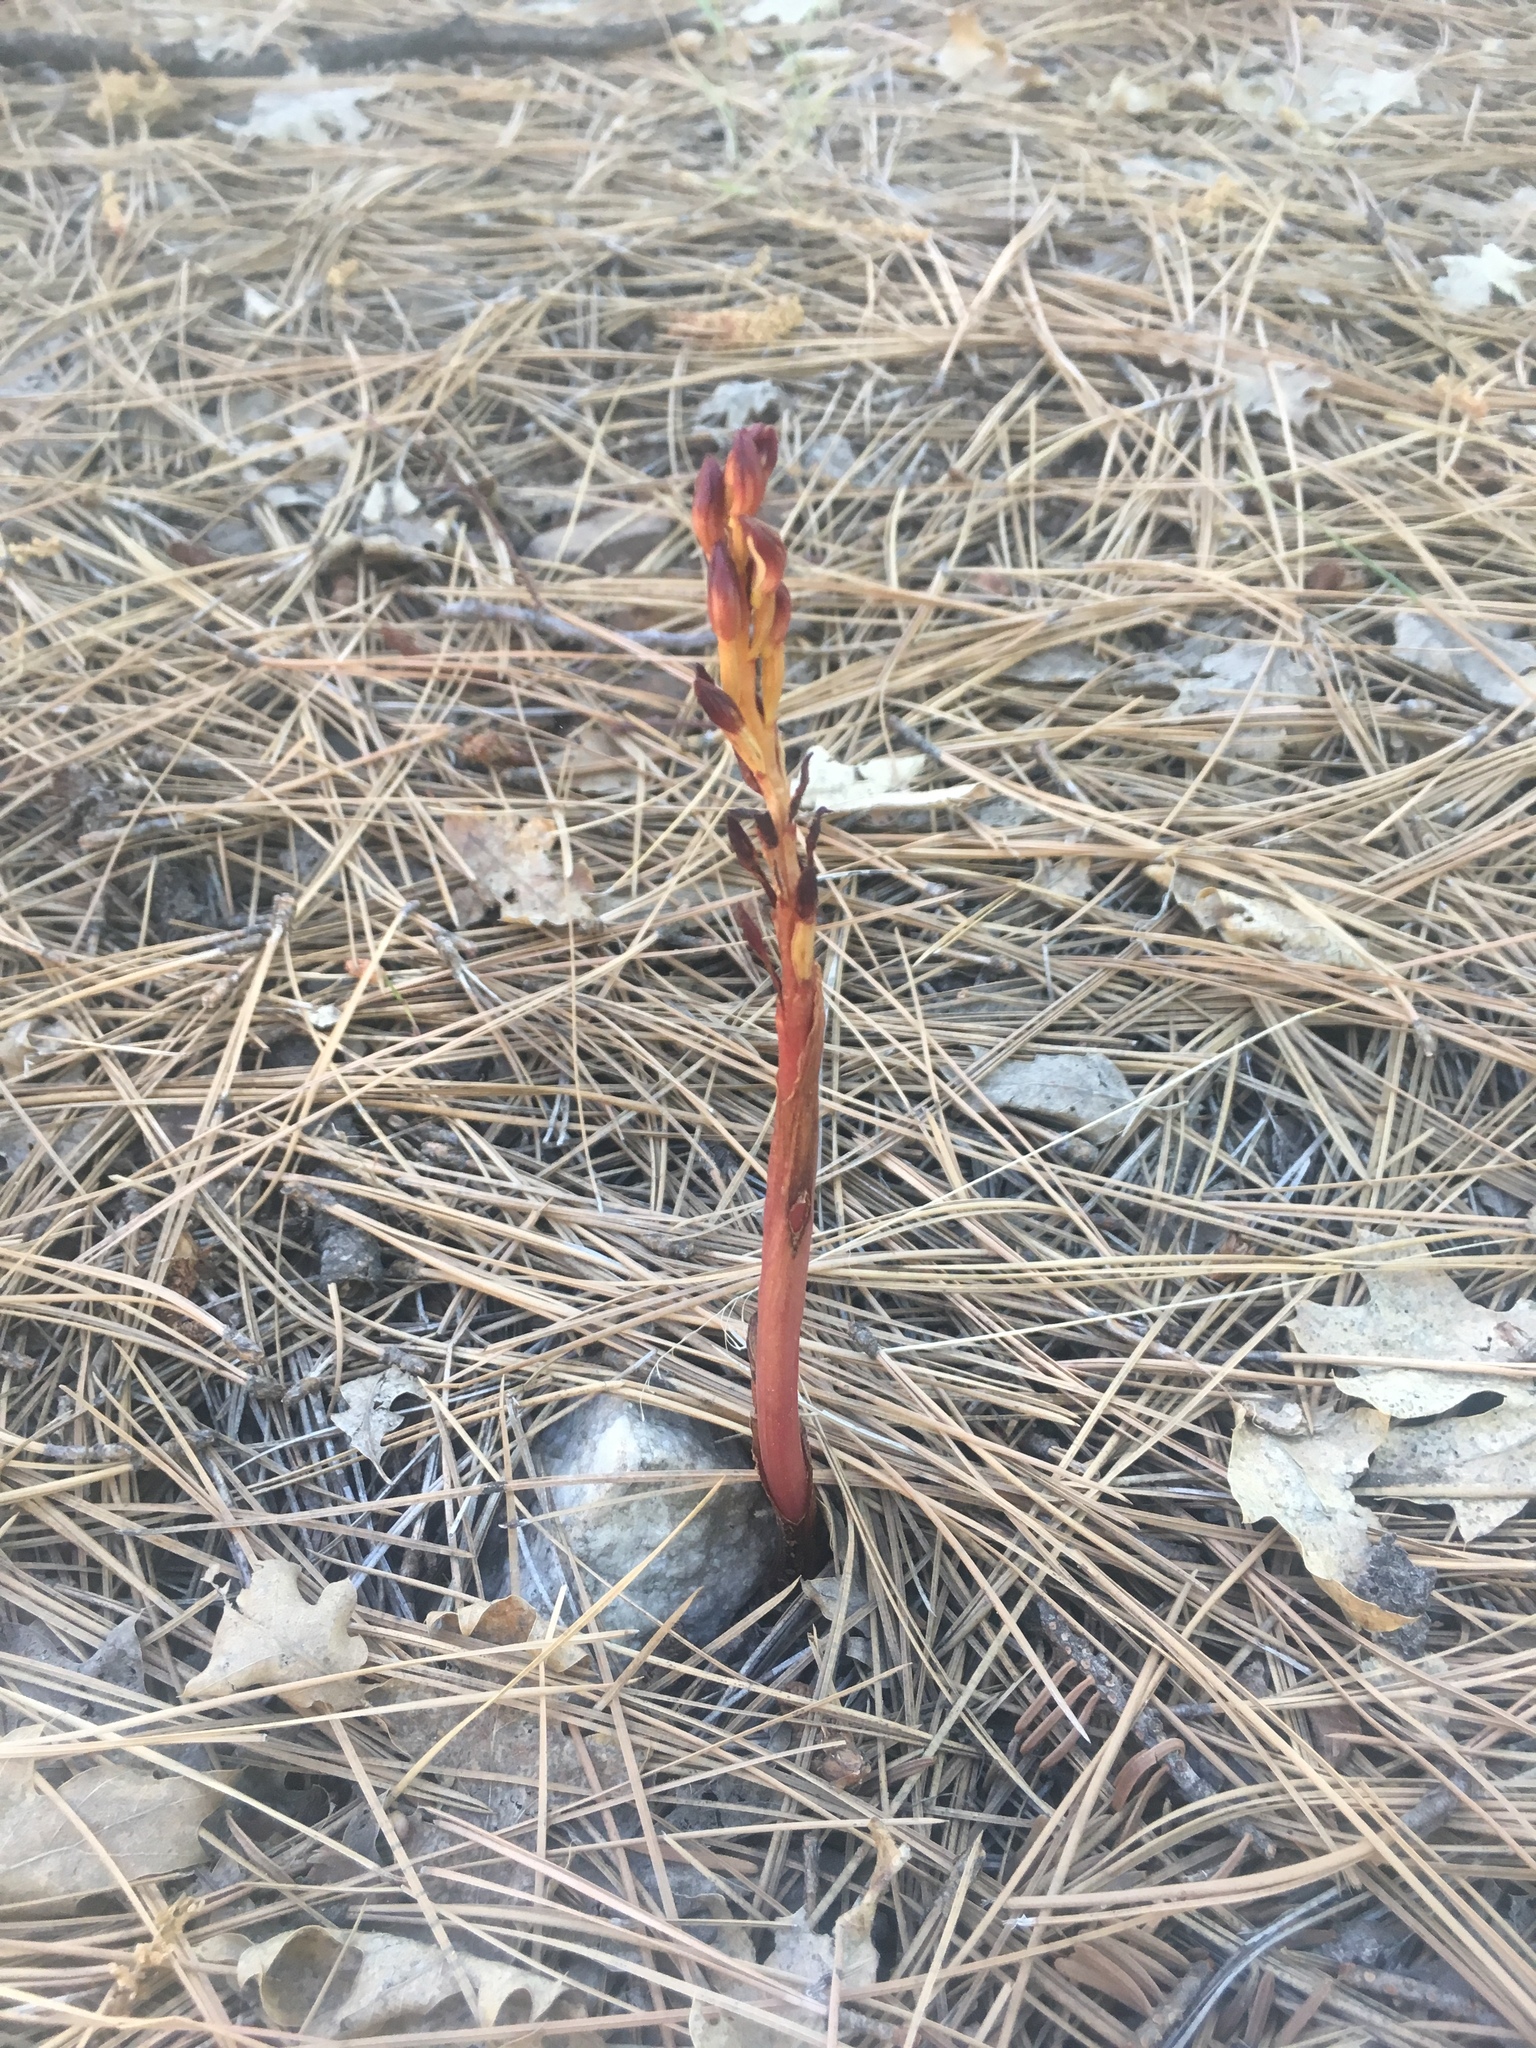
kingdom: Plantae
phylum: Tracheophyta
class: Liliopsida
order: Asparagales
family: Orchidaceae
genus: Corallorhiza
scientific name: Corallorhiza maculata
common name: Spotted coralroot
